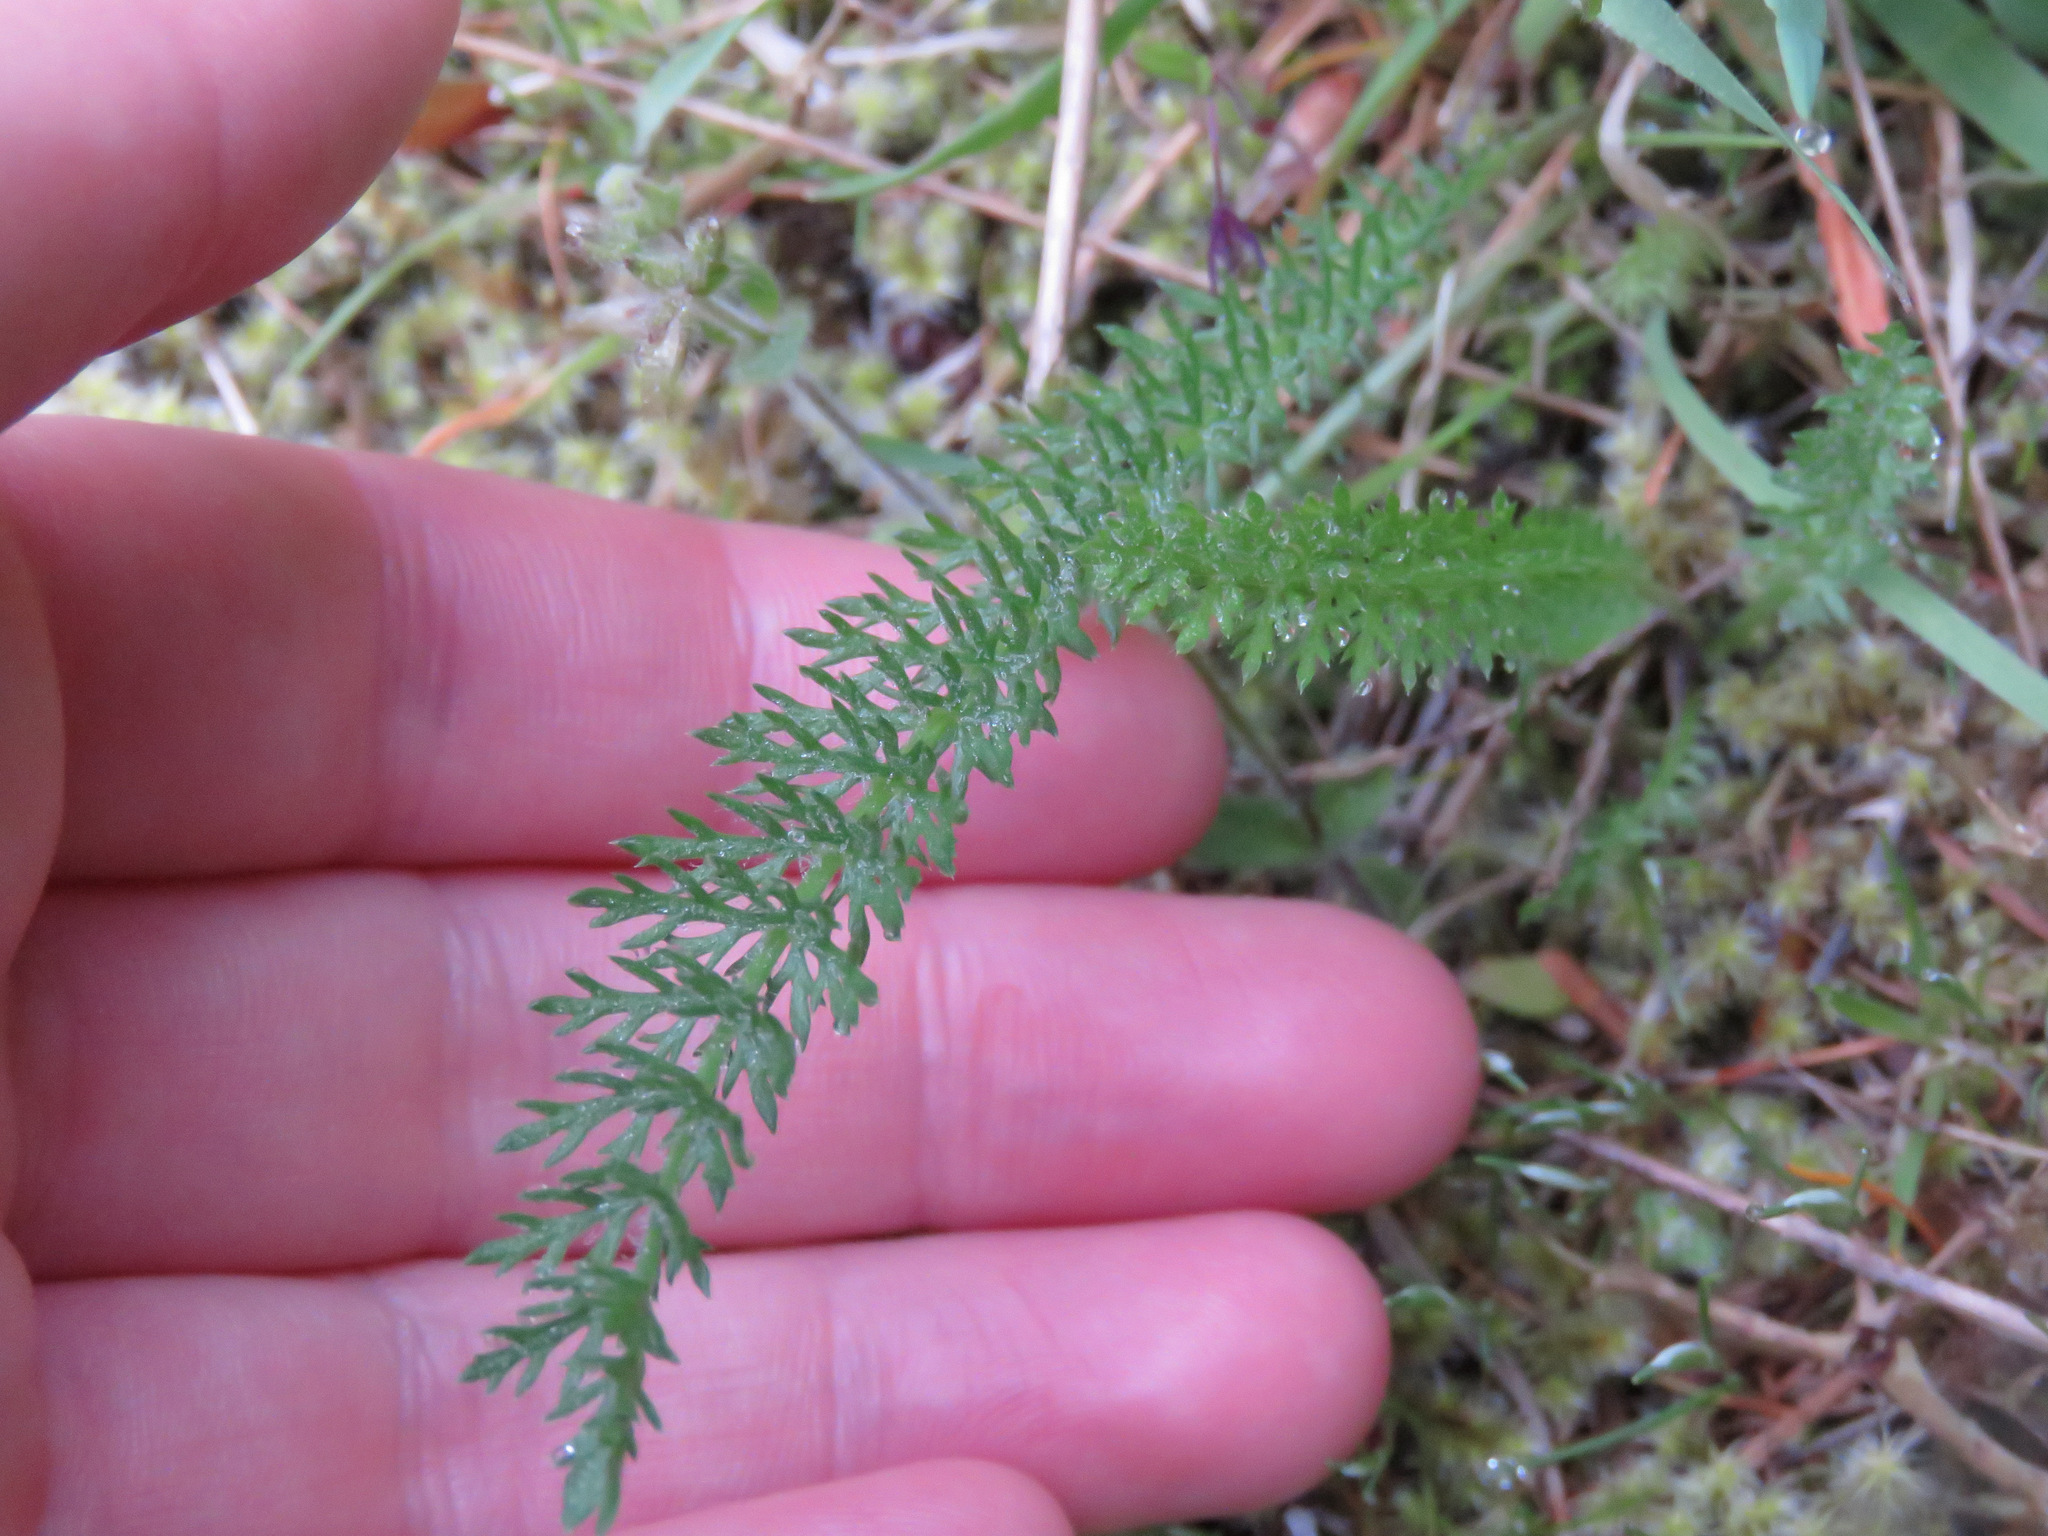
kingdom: Plantae
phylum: Tracheophyta
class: Magnoliopsida
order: Asterales
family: Asteraceae
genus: Achillea
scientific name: Achillea millefolium
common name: Yarrow
